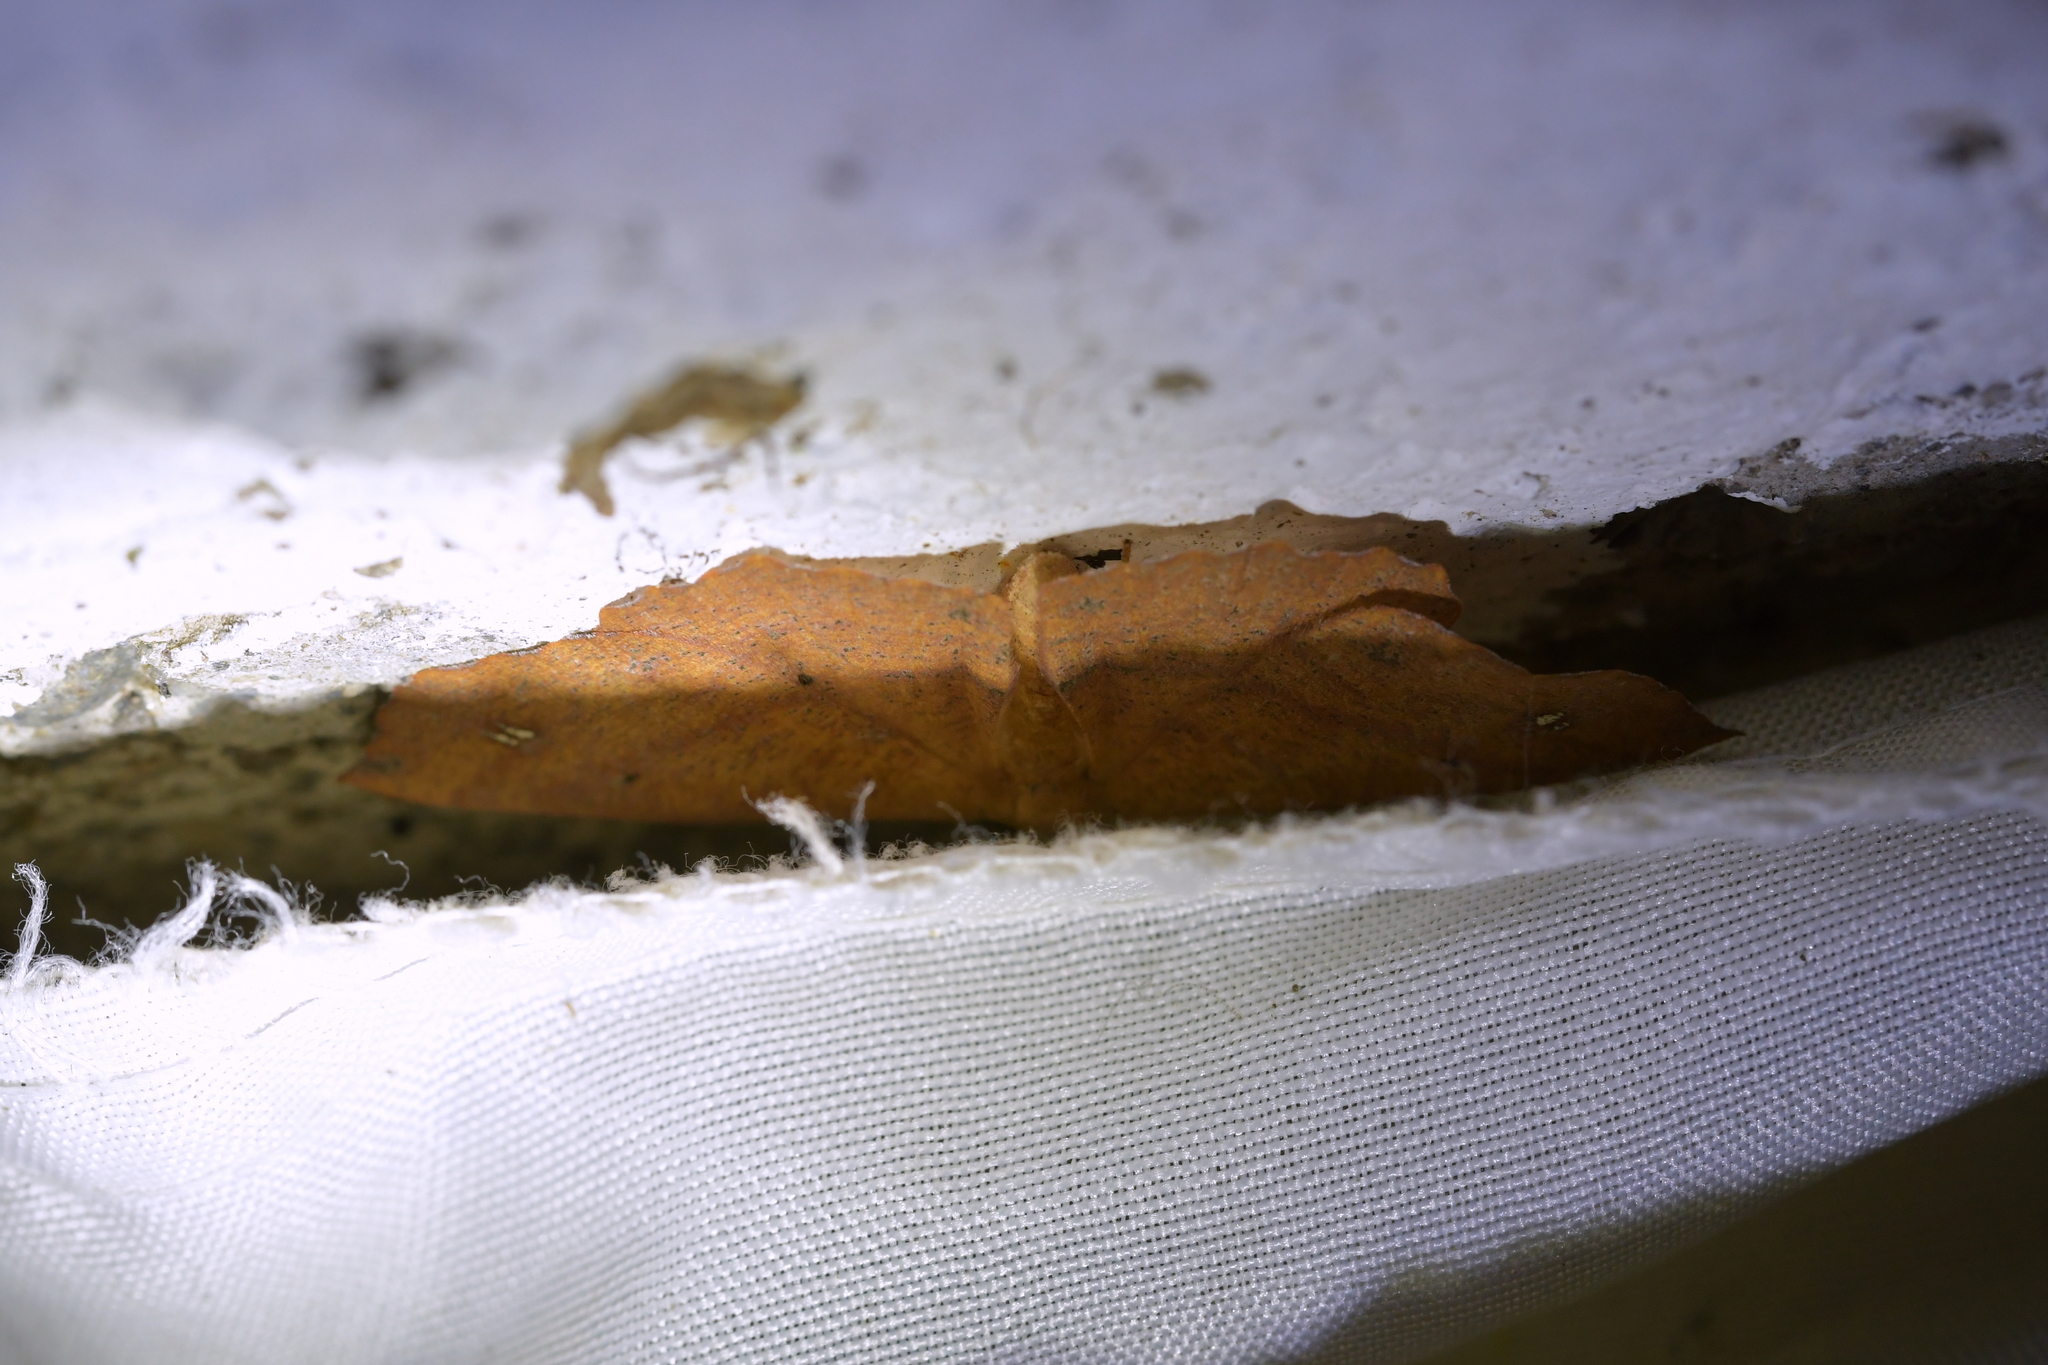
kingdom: Animalia
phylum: Arthropoda
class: Insecta
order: Lepidoptera
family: Geometridae
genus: Xyridacma
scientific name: Xyridacma ustaria
